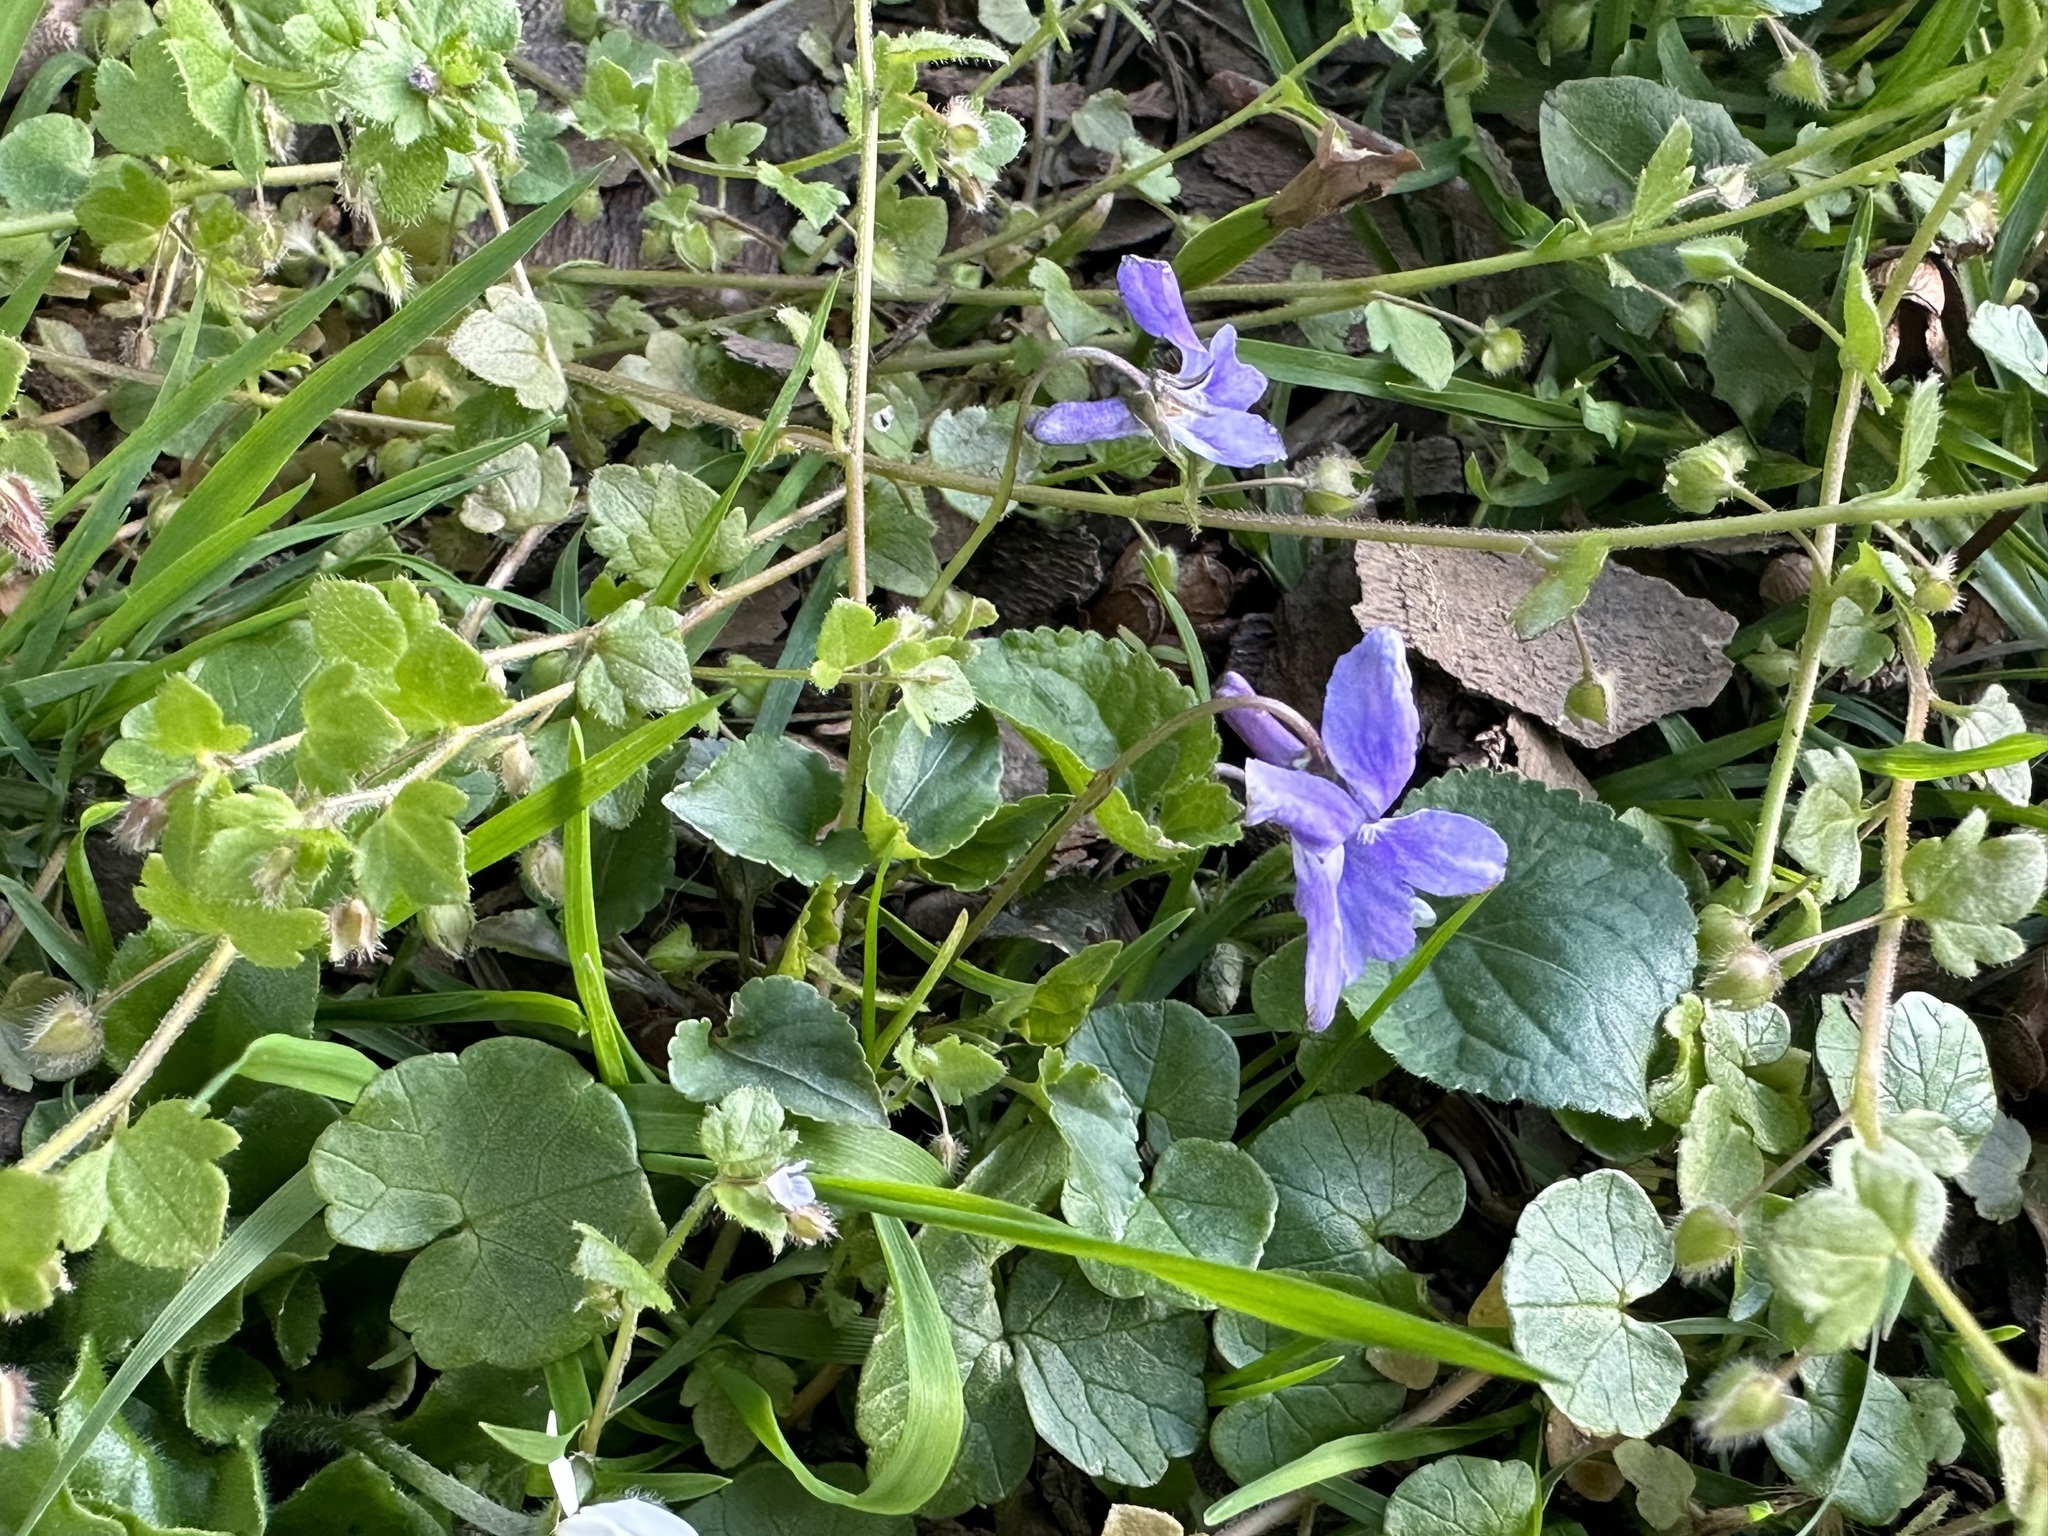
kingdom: Plantae
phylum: Tracheophyta
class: Magnoliopsida
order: Malpighiales
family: Violaceae
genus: Viola
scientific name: Viola reichenbachiana
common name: Early dog-violet
